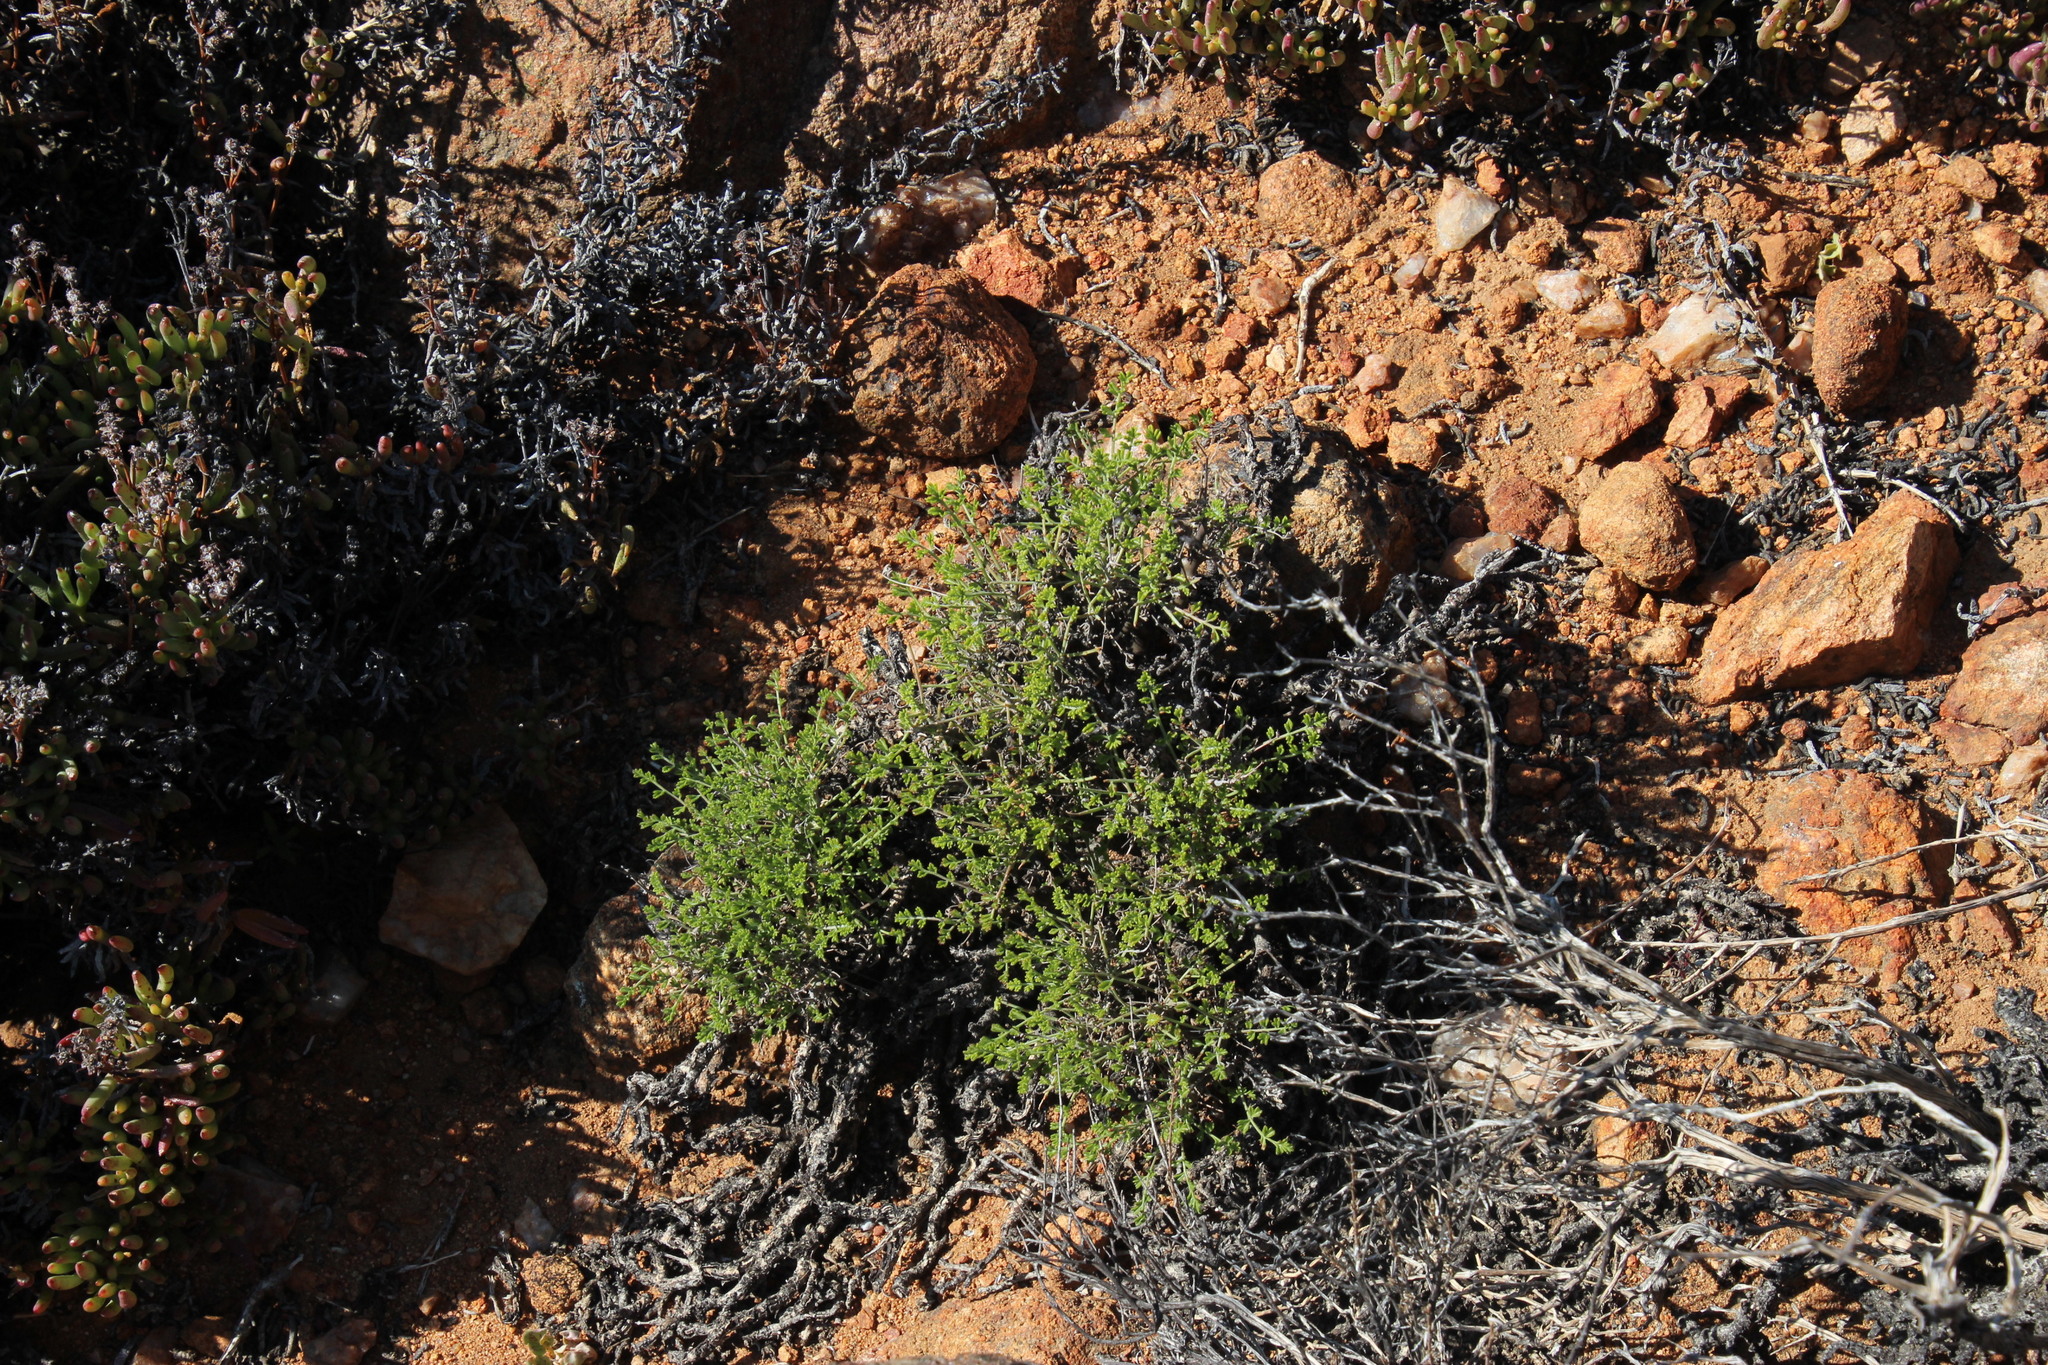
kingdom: Plantae
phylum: Tracheophyta
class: Magnoliopsida
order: Geraniales
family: Geraniaceae
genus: Pelargonium
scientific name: Pelargonium dasyphyllum
